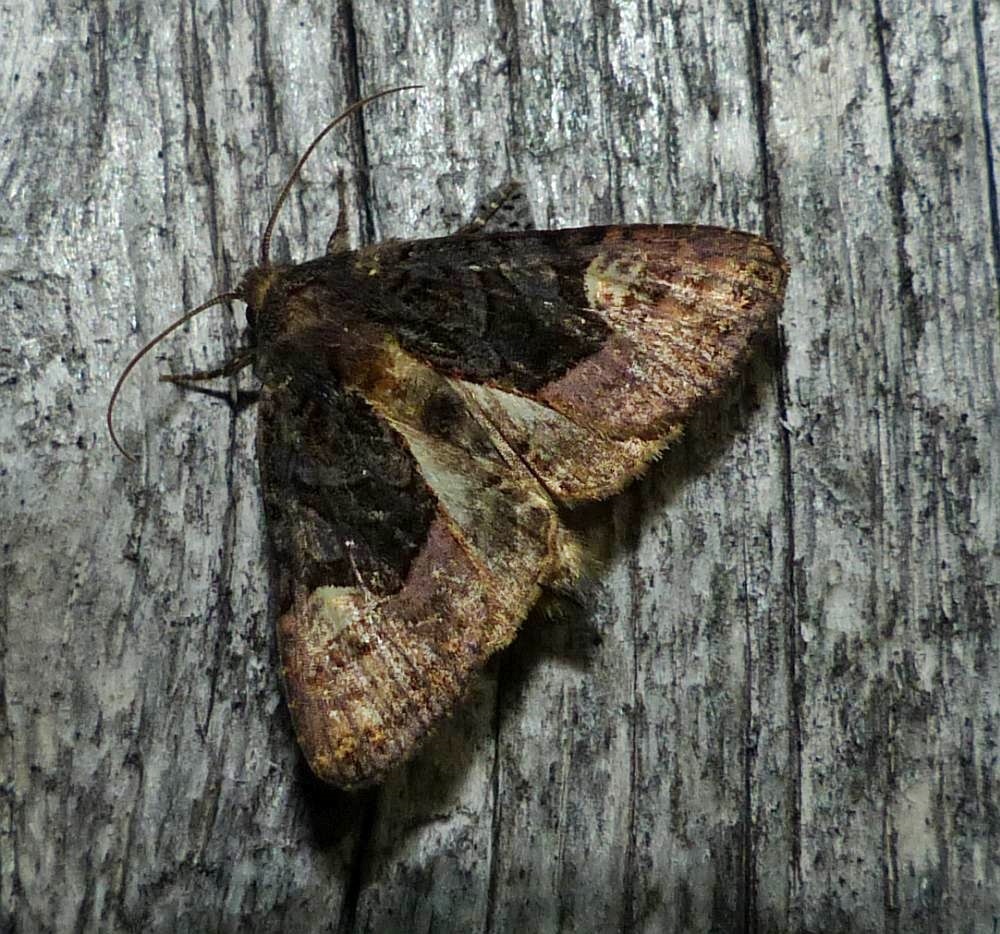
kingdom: Animalia
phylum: Arthropoda
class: Insecta
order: Lepidoptera
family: Noctuidae
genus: Euplexia
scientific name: Euplexia benesimilis
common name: American angle shades
